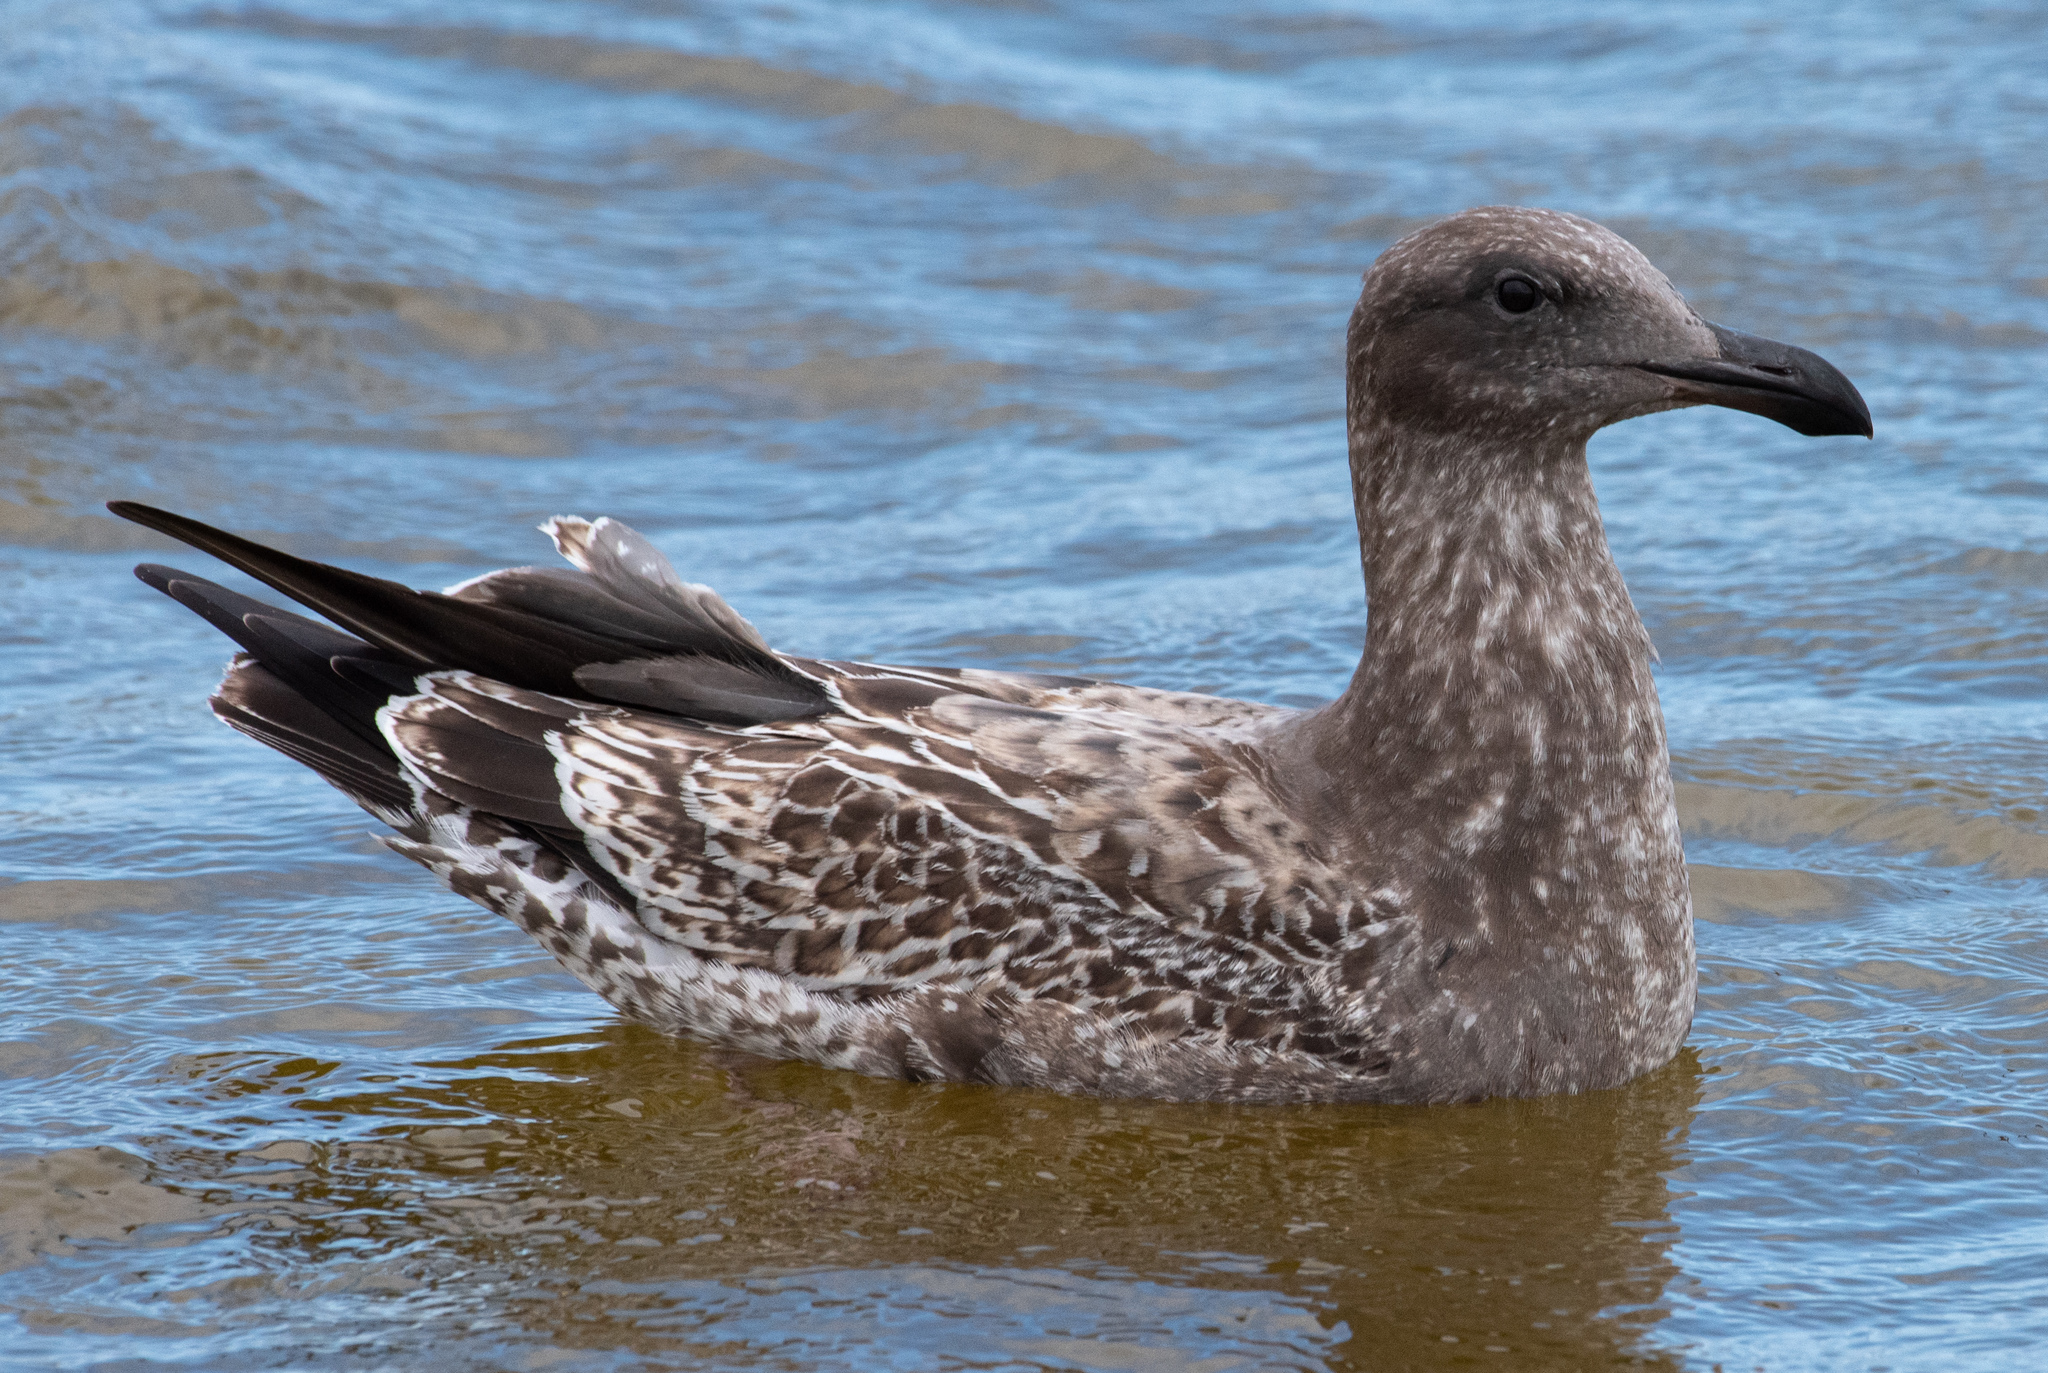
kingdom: Animalia
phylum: Chordata
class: Aves
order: Charadriiformes
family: Laridae
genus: Larus
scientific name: Larus occidentalis
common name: Western gull
